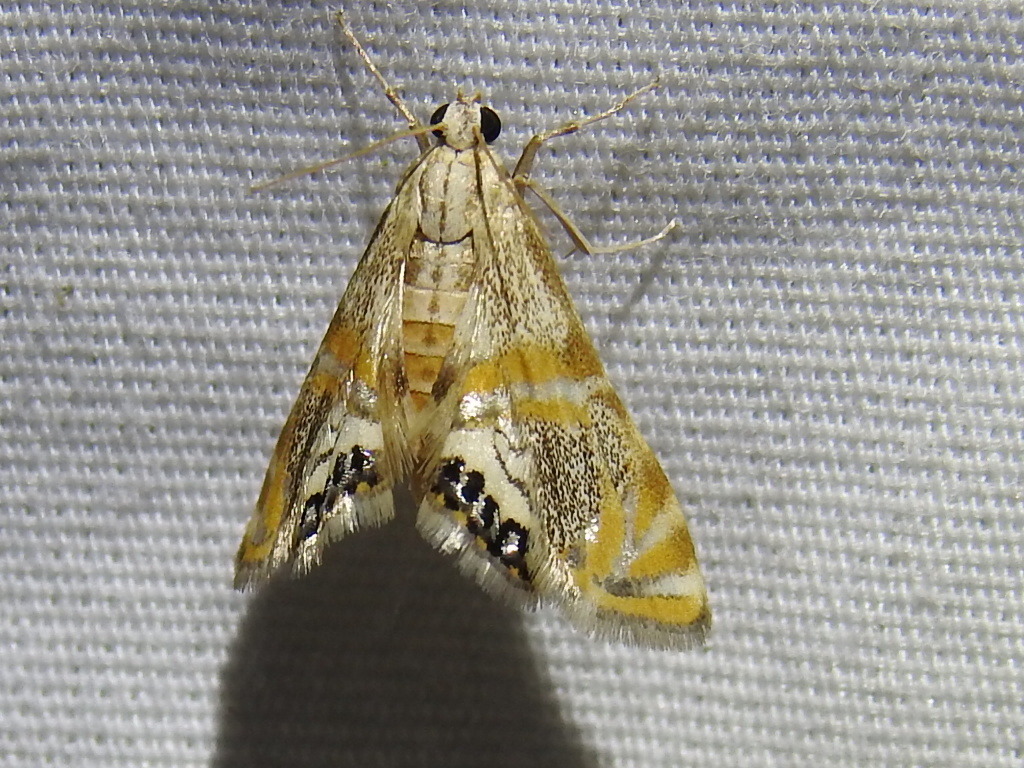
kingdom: Animalia
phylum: Arthropoda
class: Insecta
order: Lepidoptera
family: Crambidae
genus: Petrophila
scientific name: Petrophila cappsi
